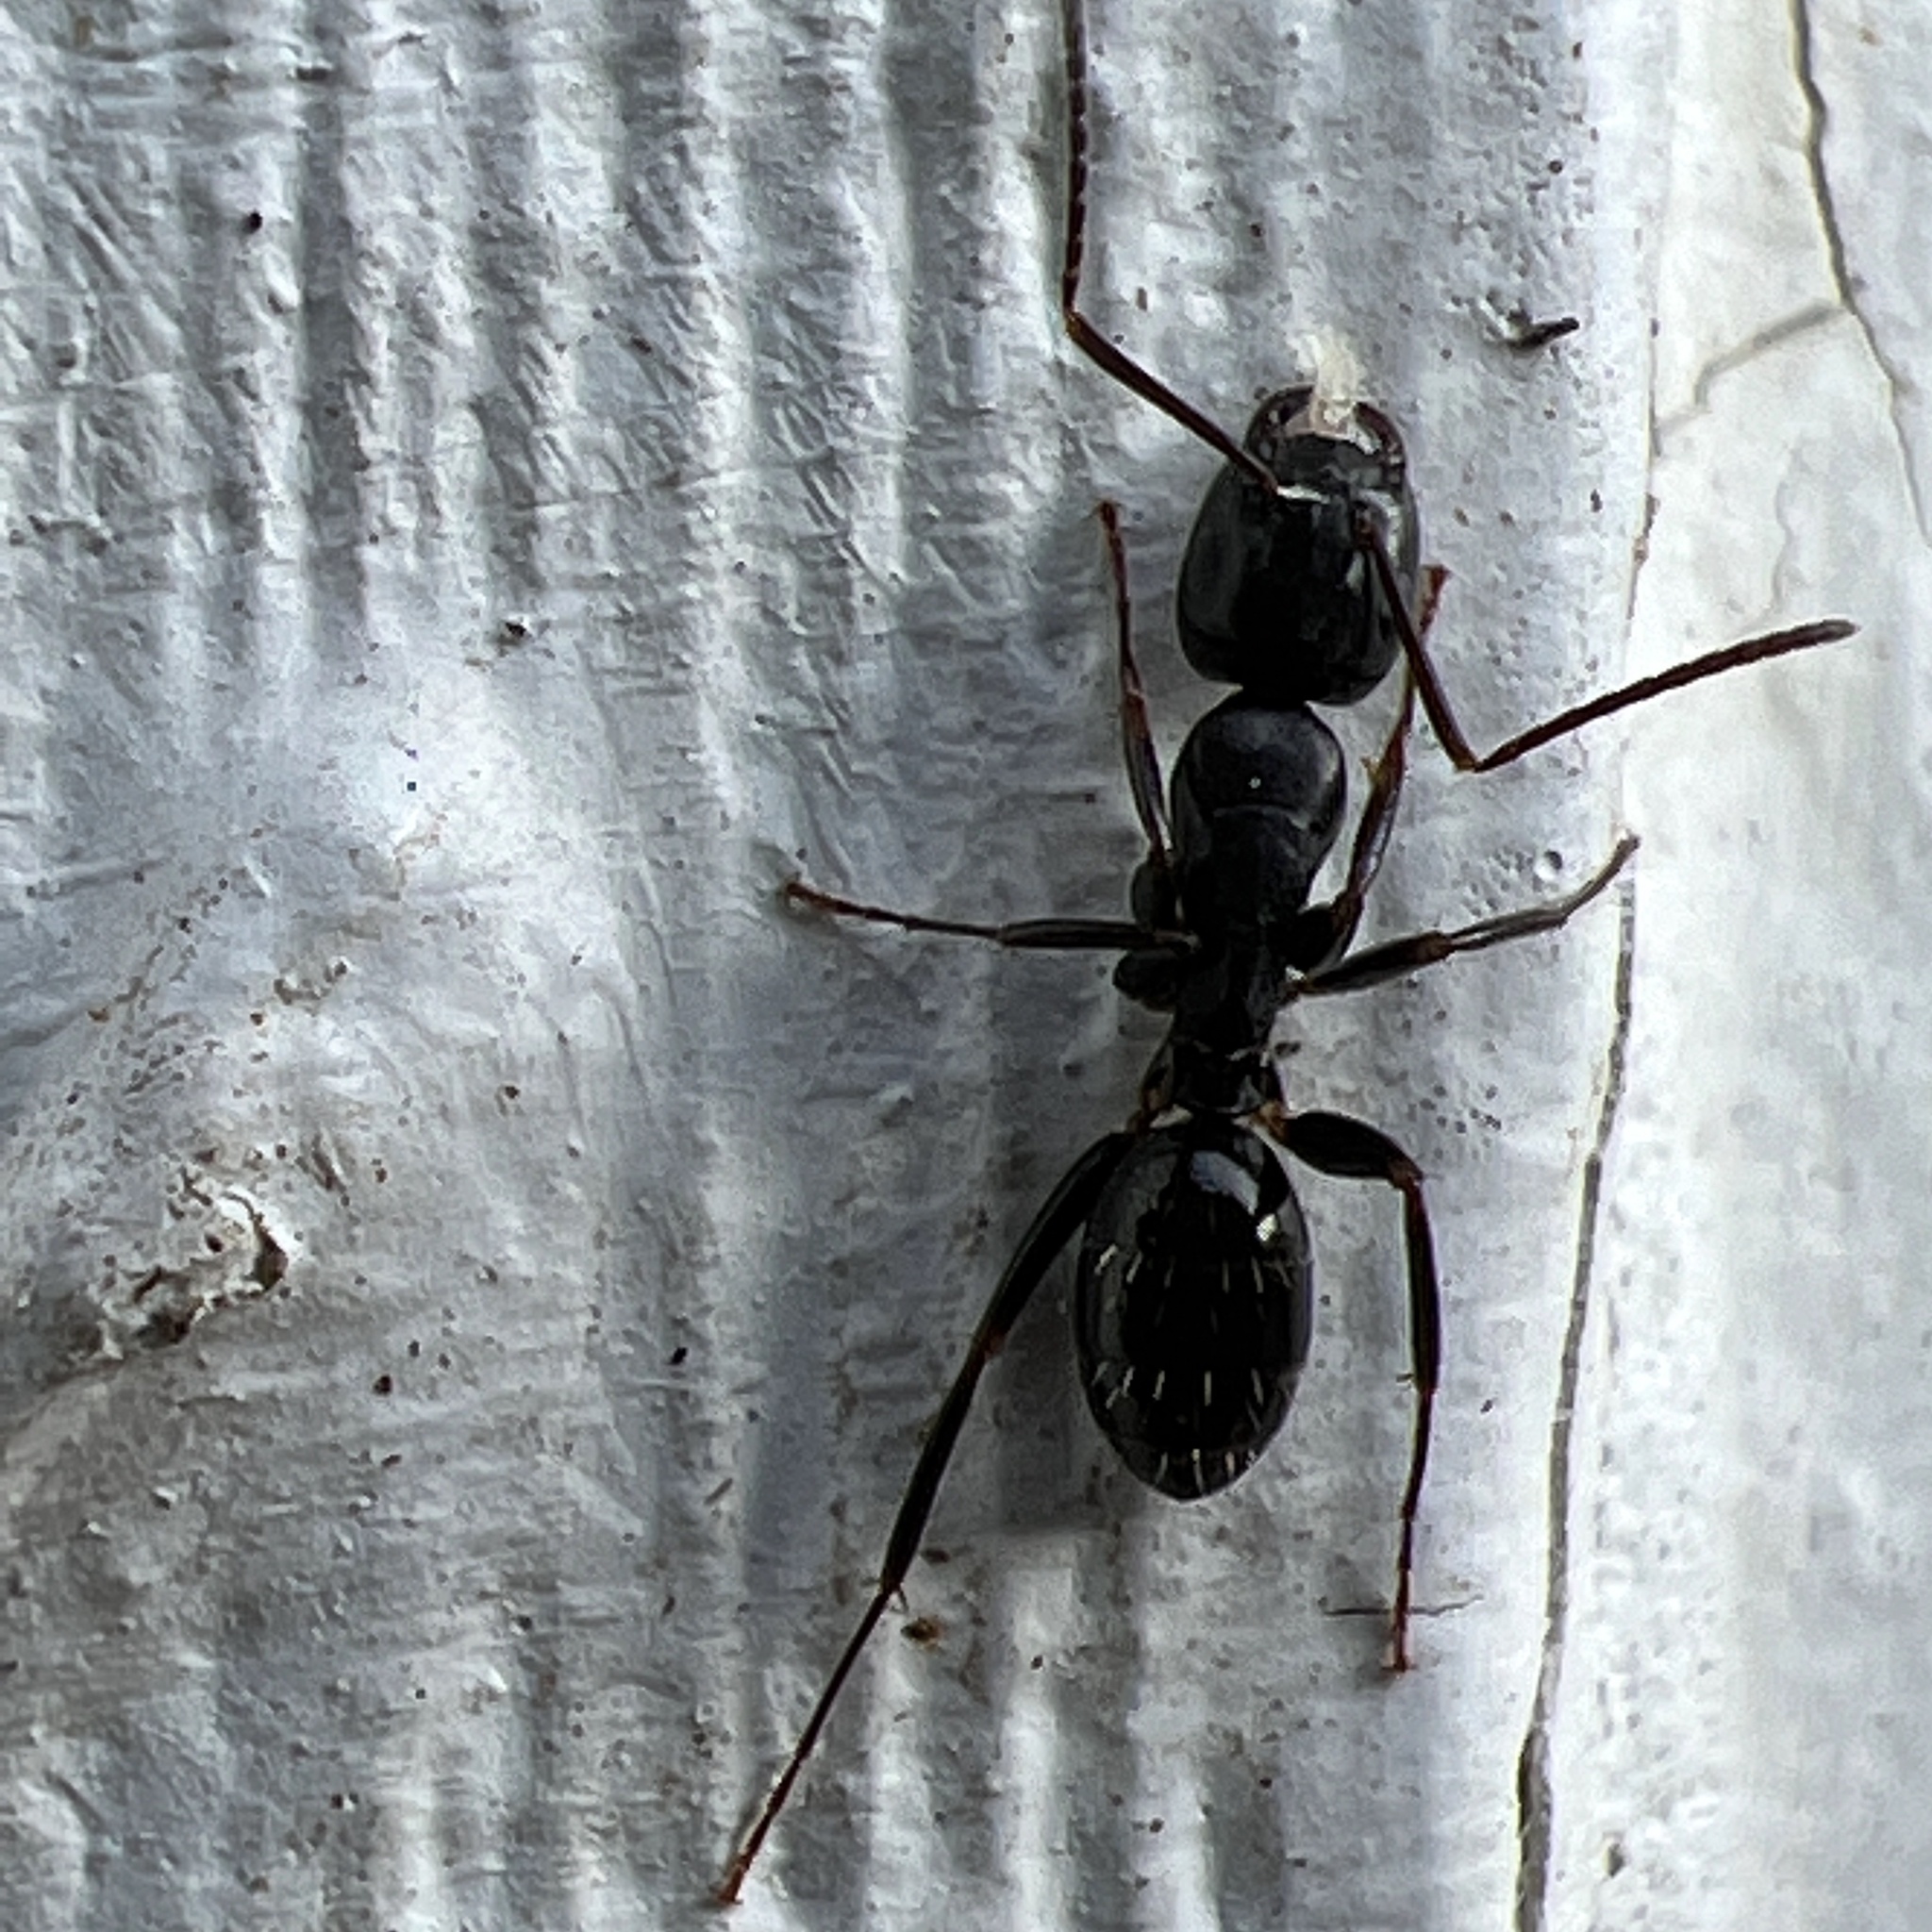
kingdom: Animalia
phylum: Arthropoda
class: Insecta
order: Hymenoptera
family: Formicidae
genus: Camponotus
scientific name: Camponotus nearcticus
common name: Smaller carpenter ant
